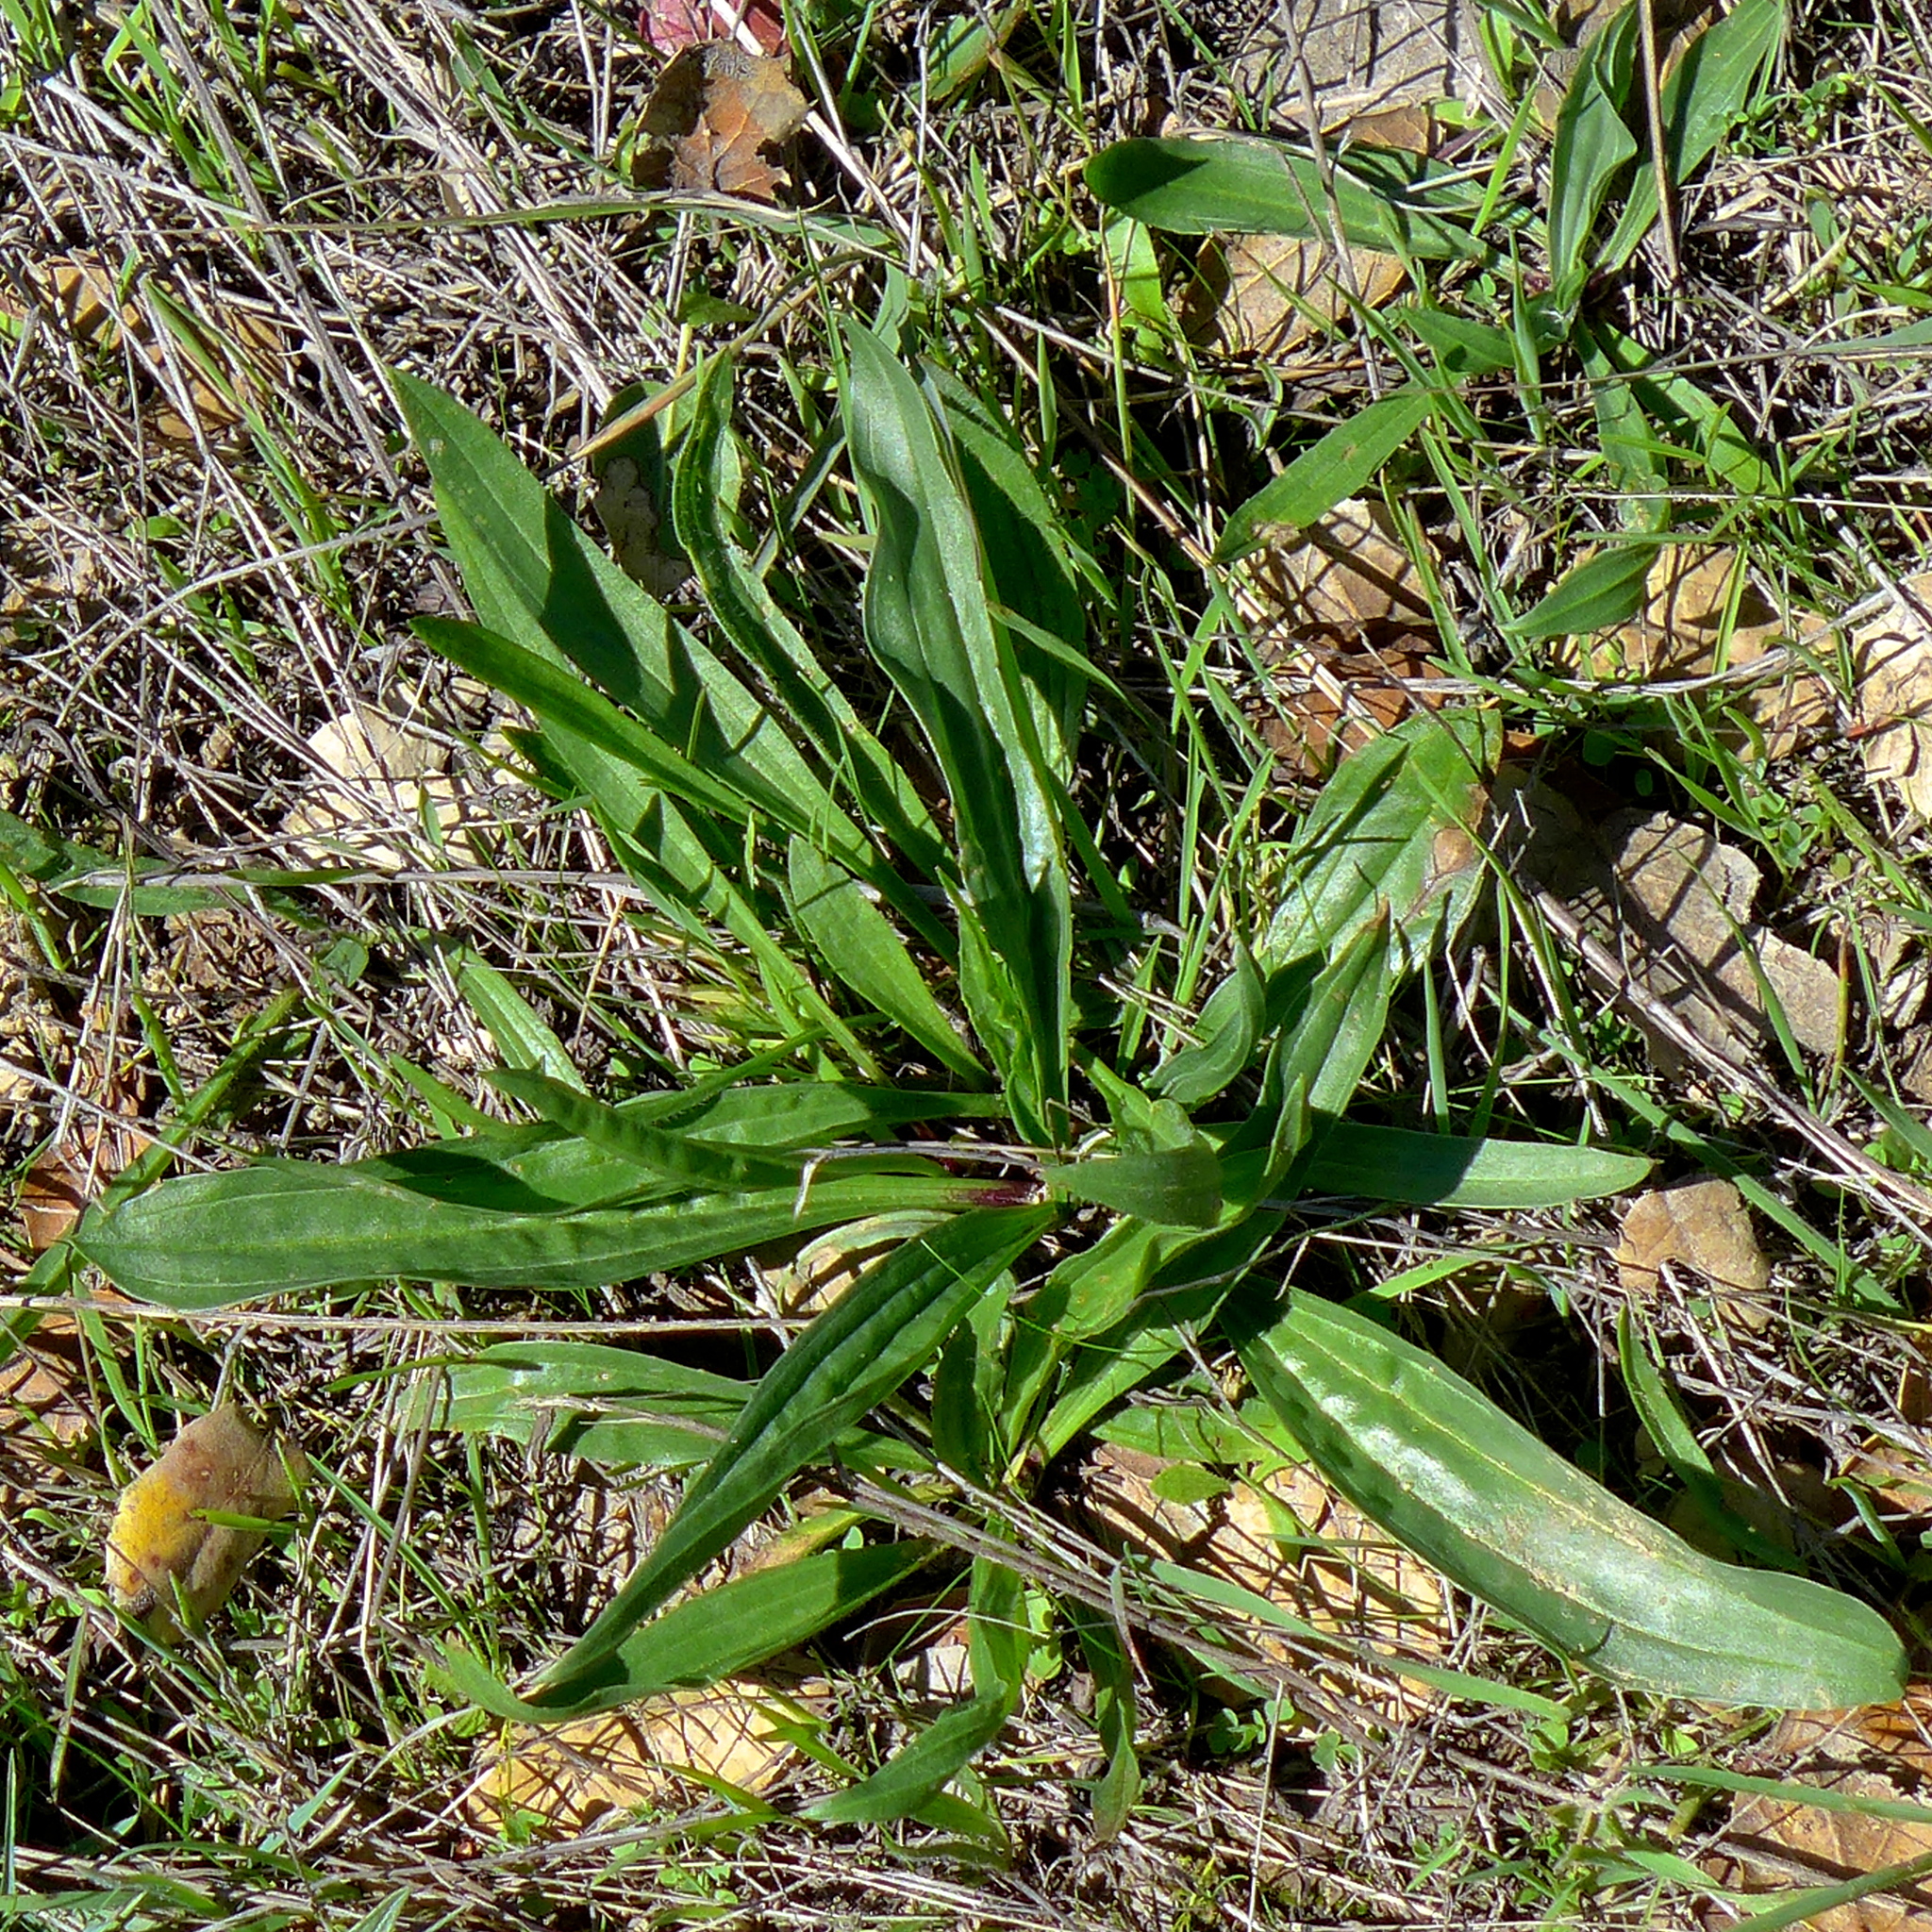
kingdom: Plantae
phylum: Tracheophyta
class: Magnoliopsida
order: Lamiales
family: Plantaginaceae
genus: Plantago
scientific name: Plantago lanceolata
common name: Ribwort plantain
